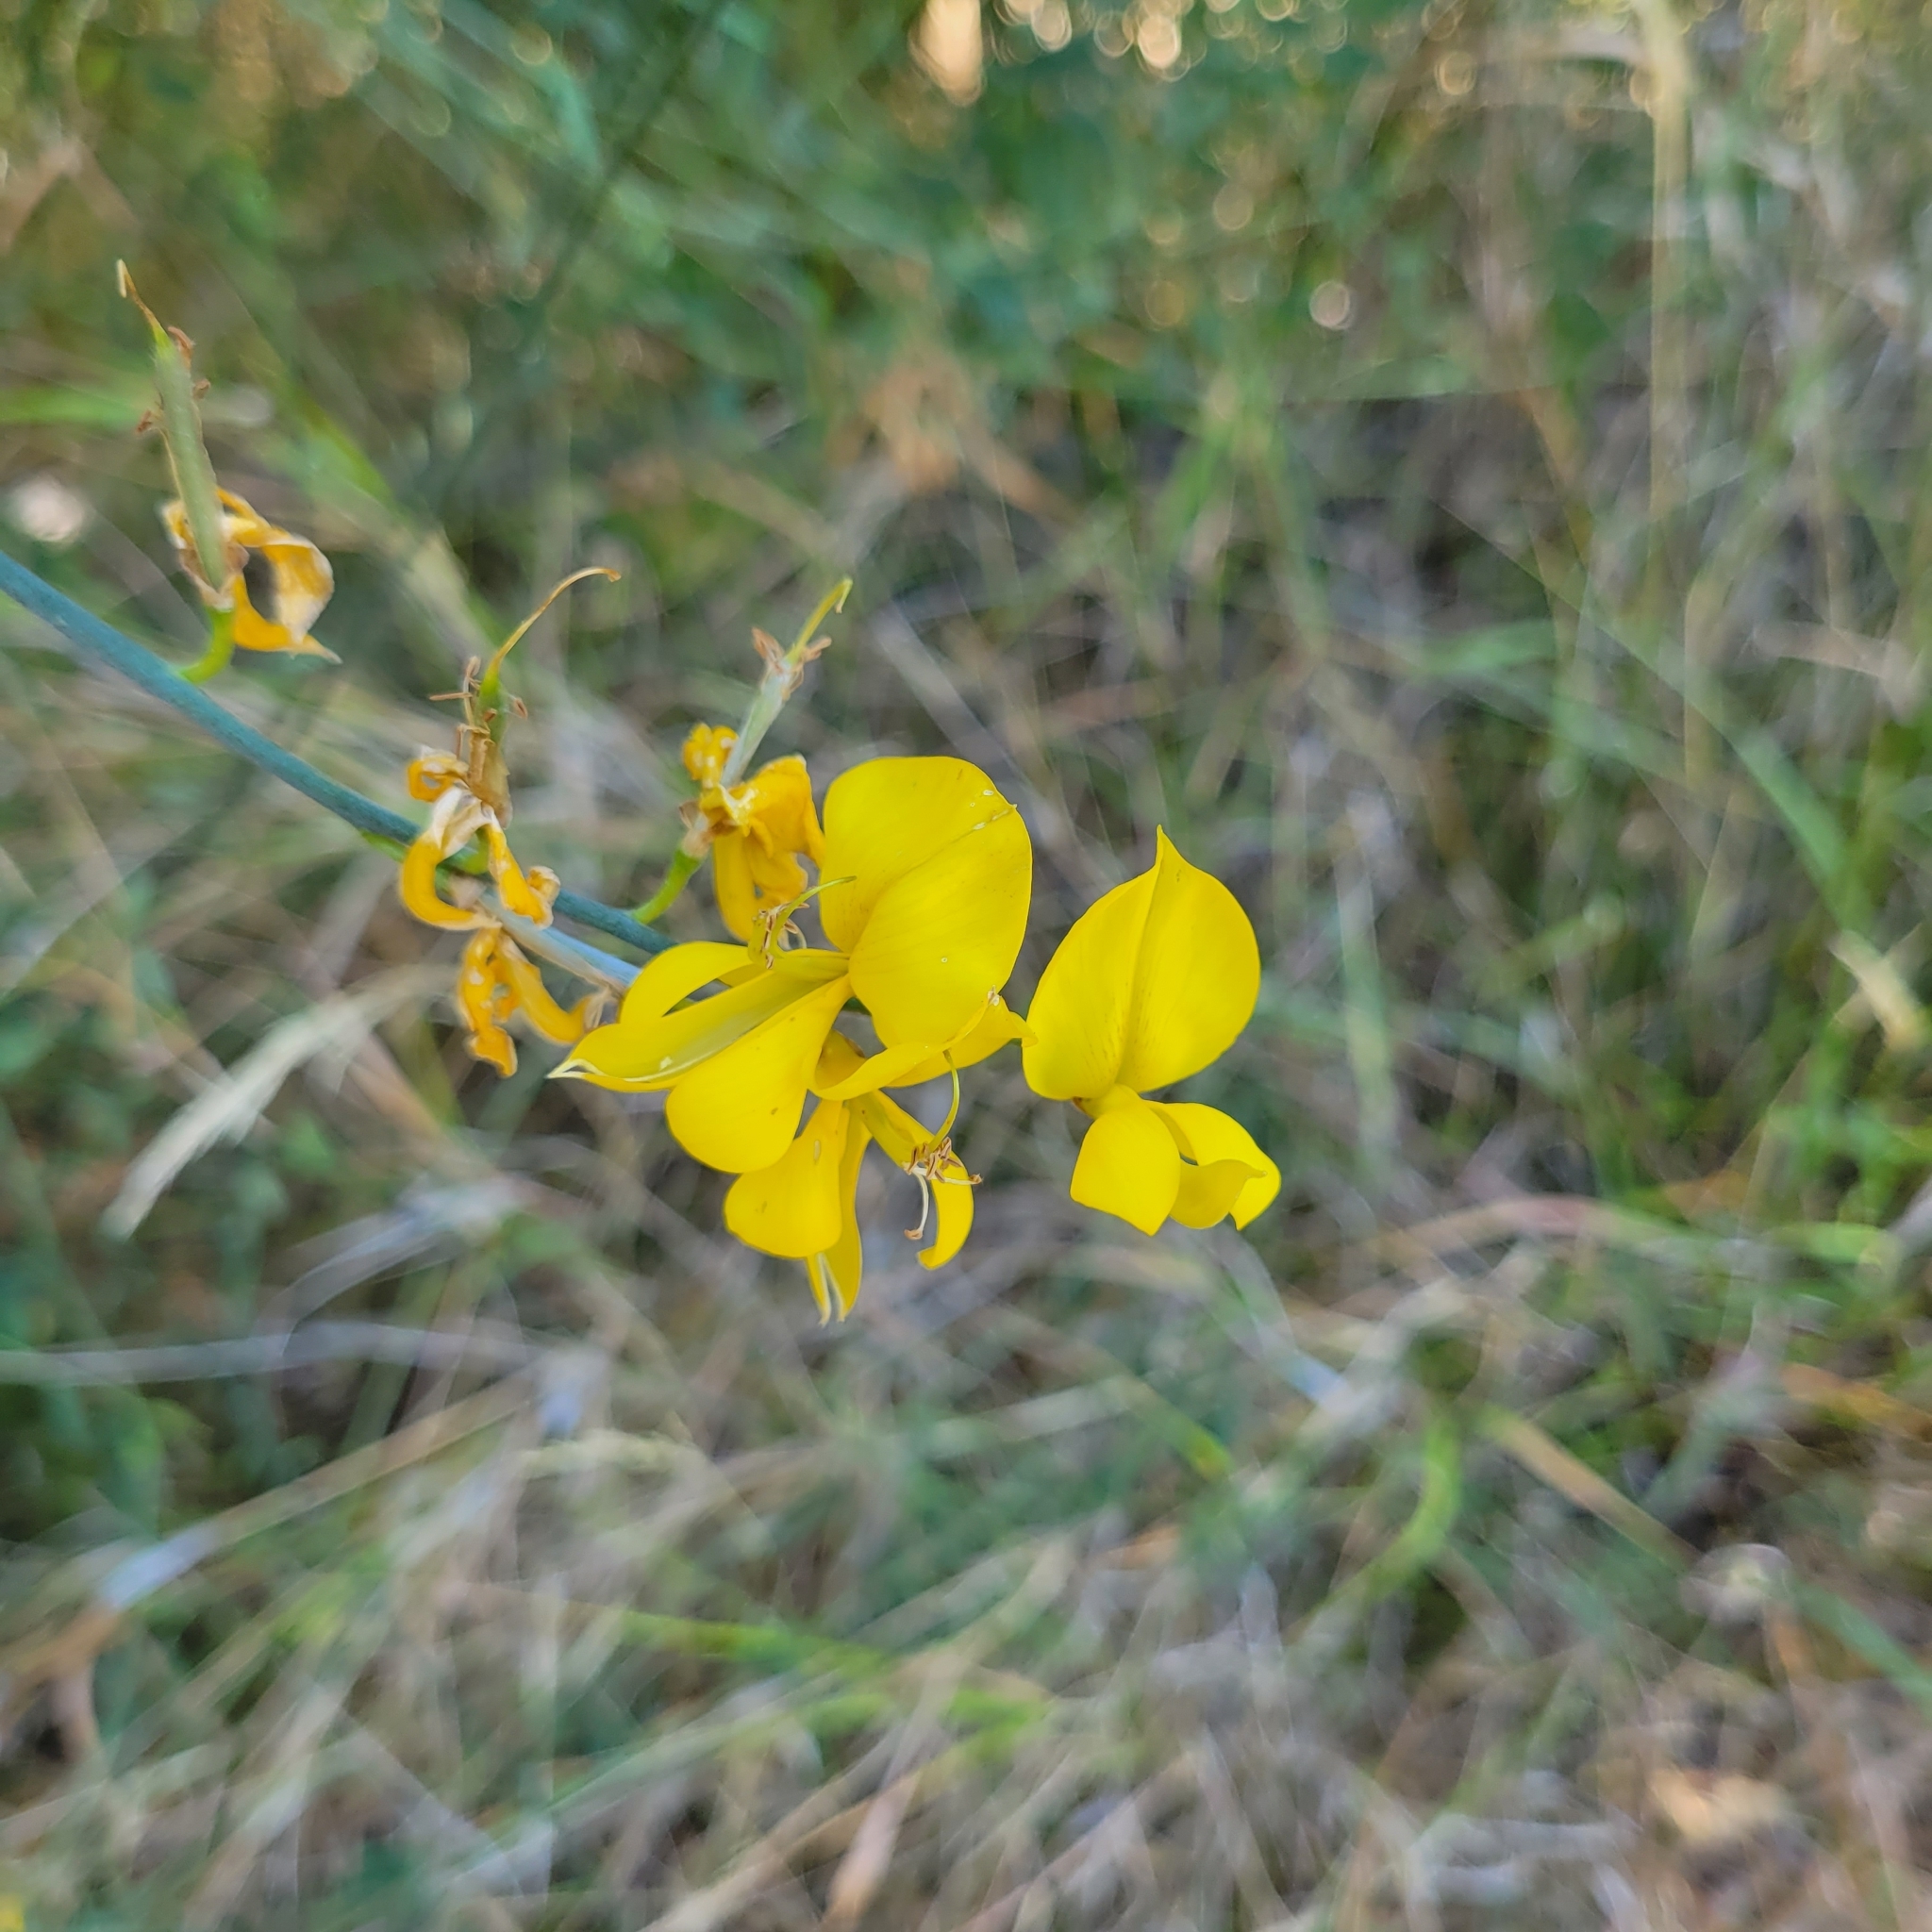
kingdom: Plantae
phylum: Tracheophyta
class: Magnoliopsida
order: Fabales
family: Fabaceae
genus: Spartium
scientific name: Spartium junceum
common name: Spanish broom
